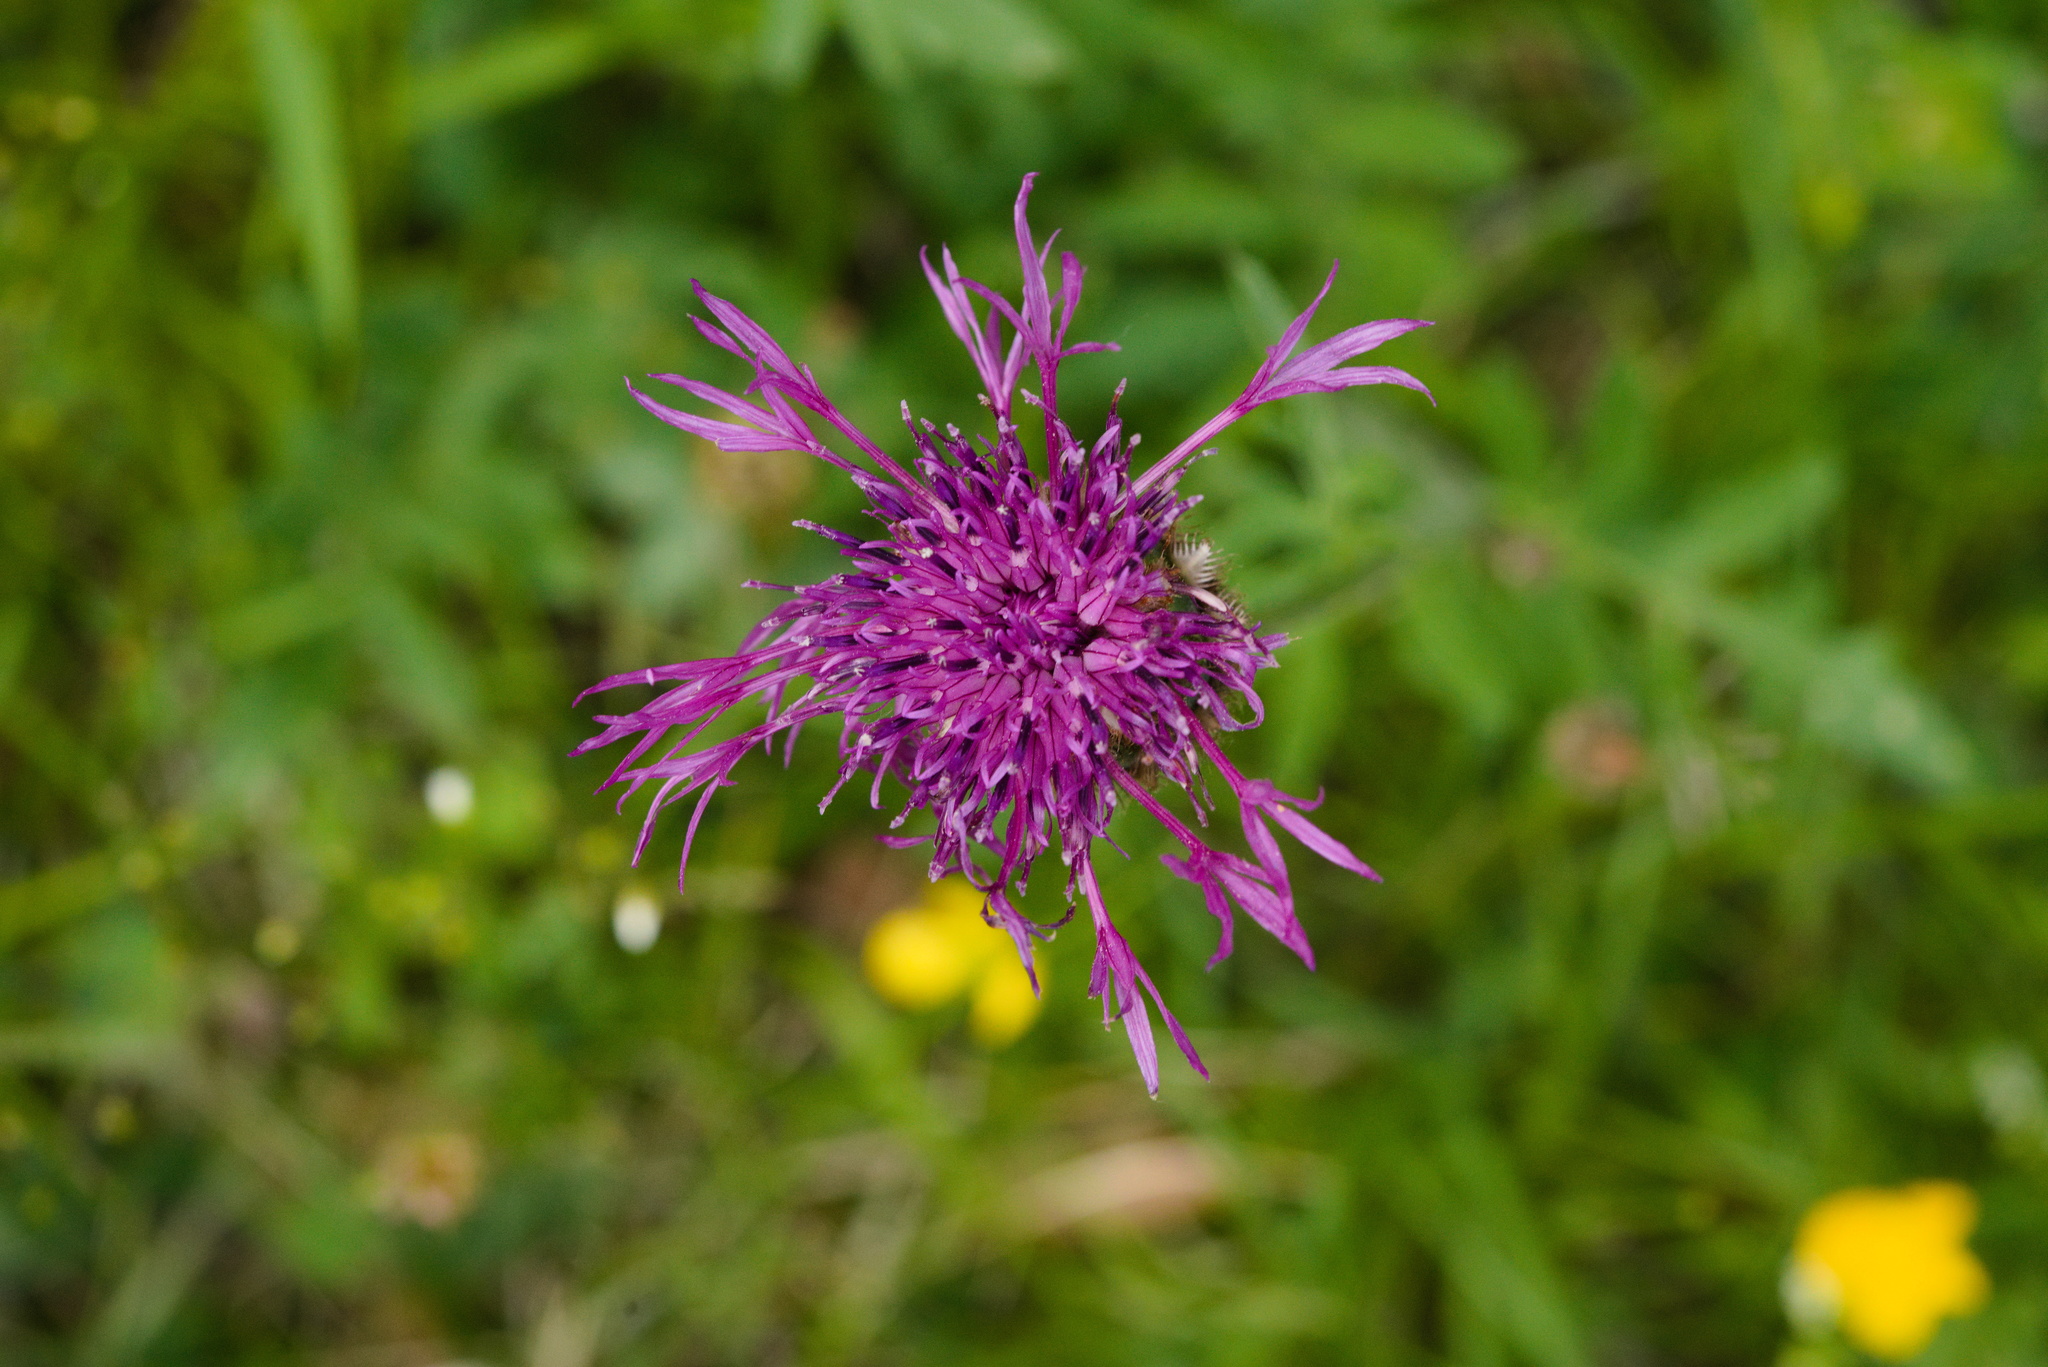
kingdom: Plantae
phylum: Tracheophyta
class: Magnoliopsida
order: Asterales
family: Asteraceae
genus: Centaurea
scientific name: Centaurea scabiosa
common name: Greater knapweed
